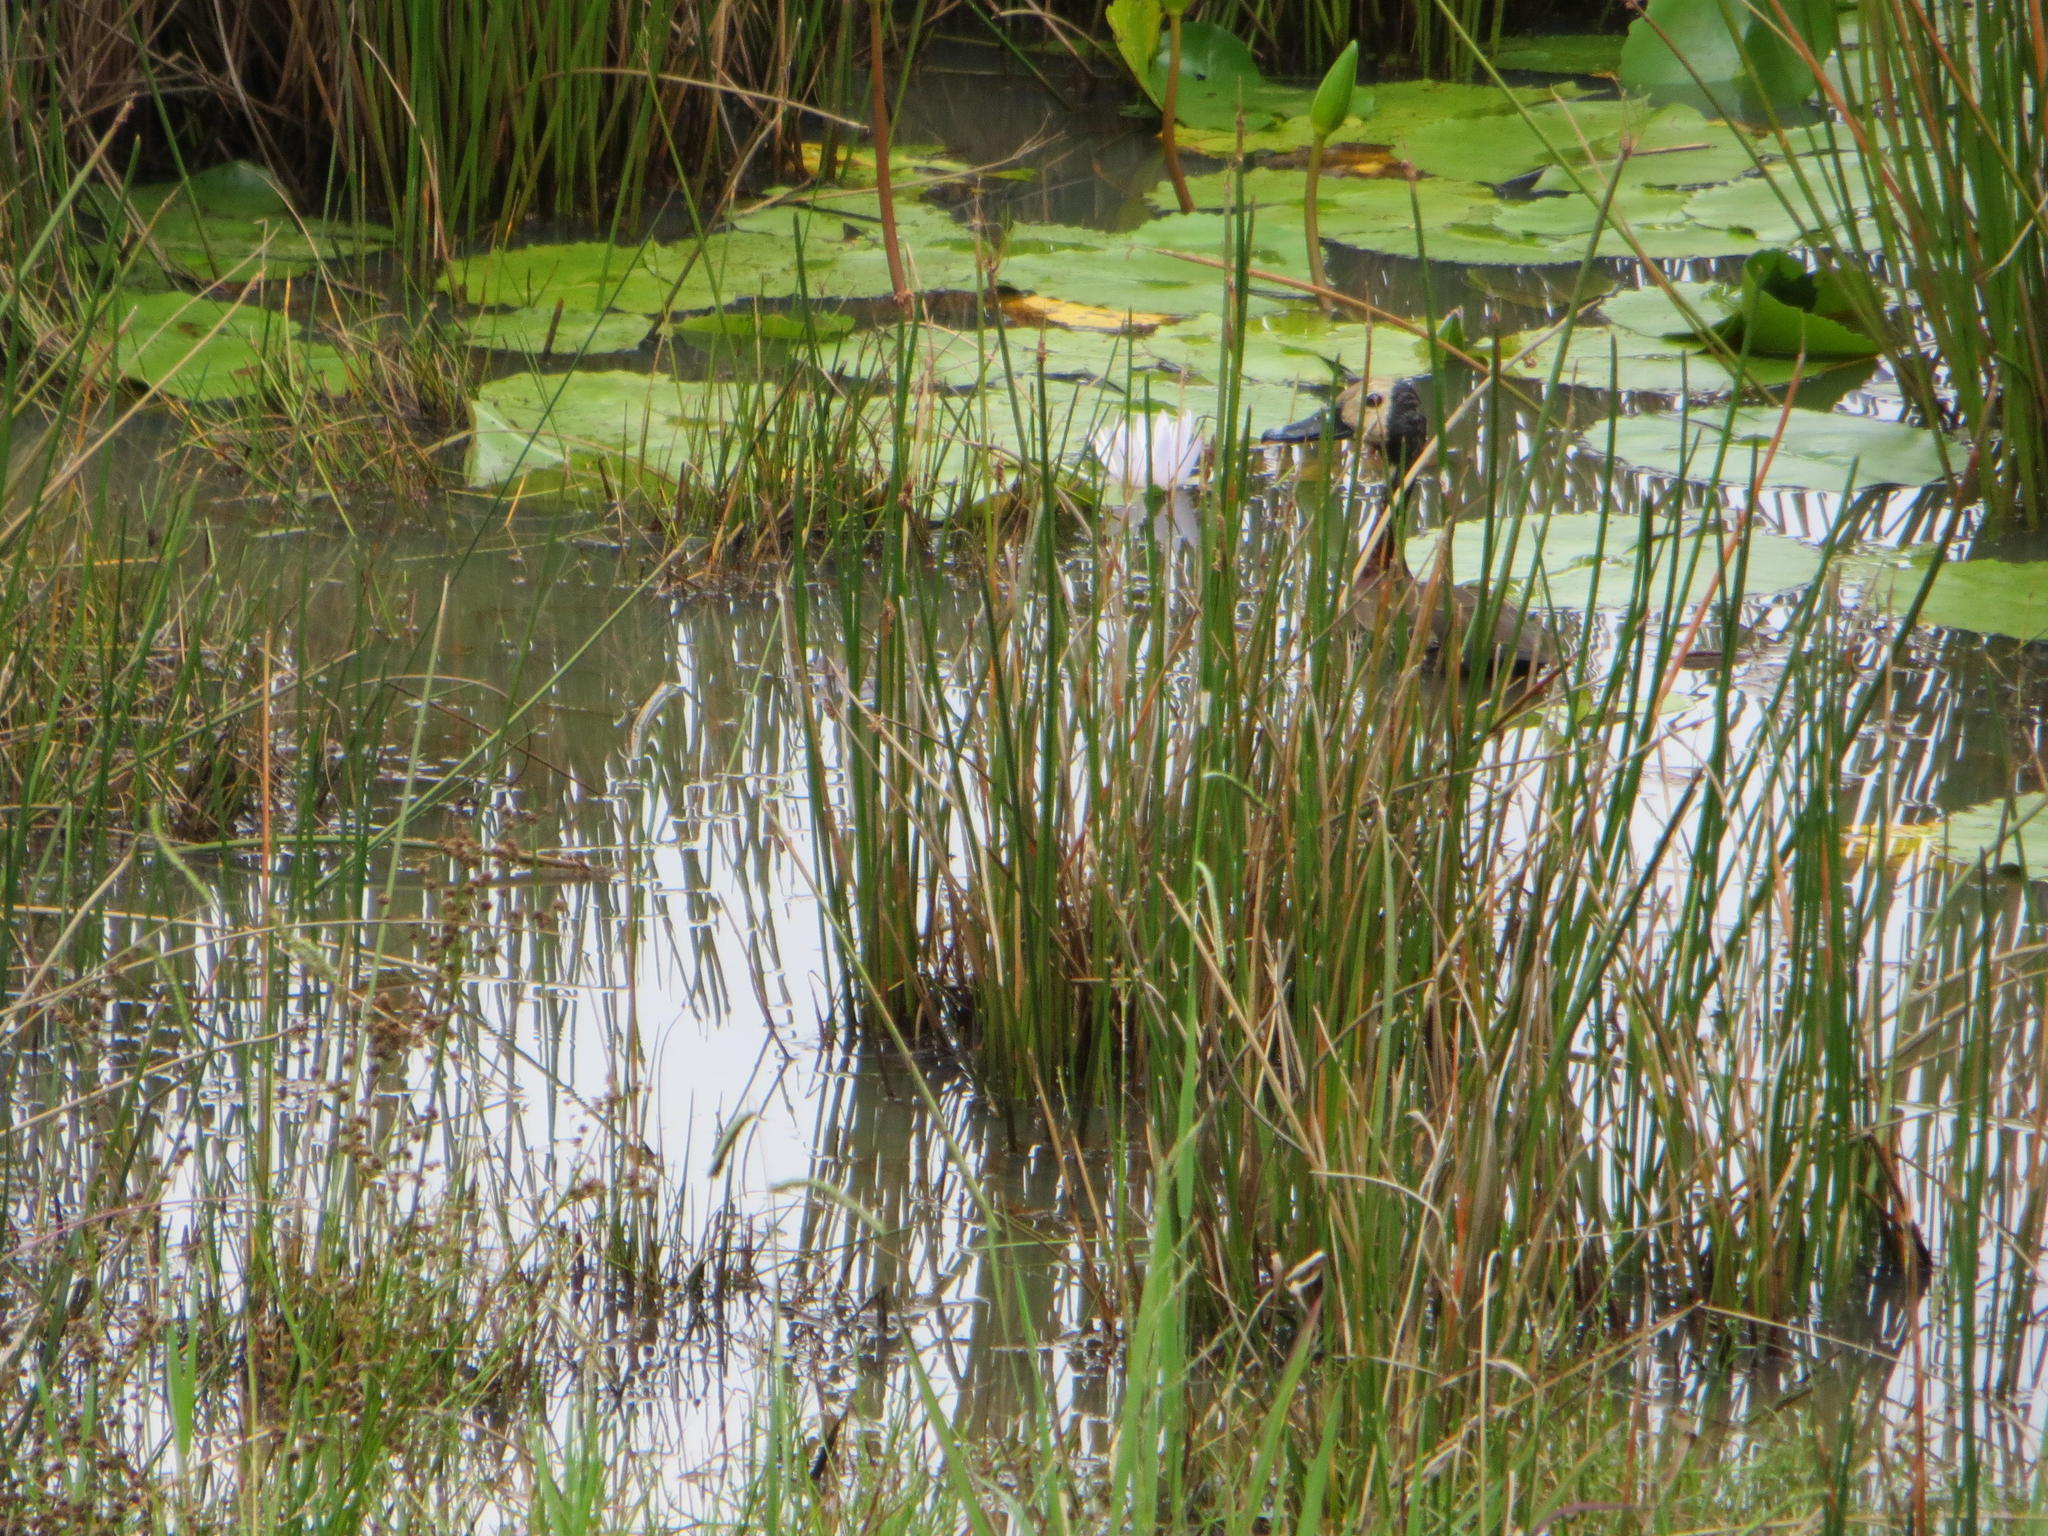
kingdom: Animalia
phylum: Chordata
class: Aves
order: Anseriformes
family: Anatidae
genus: Dendrocygna
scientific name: Dendrocygna viduata
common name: White-faced whistling duck
